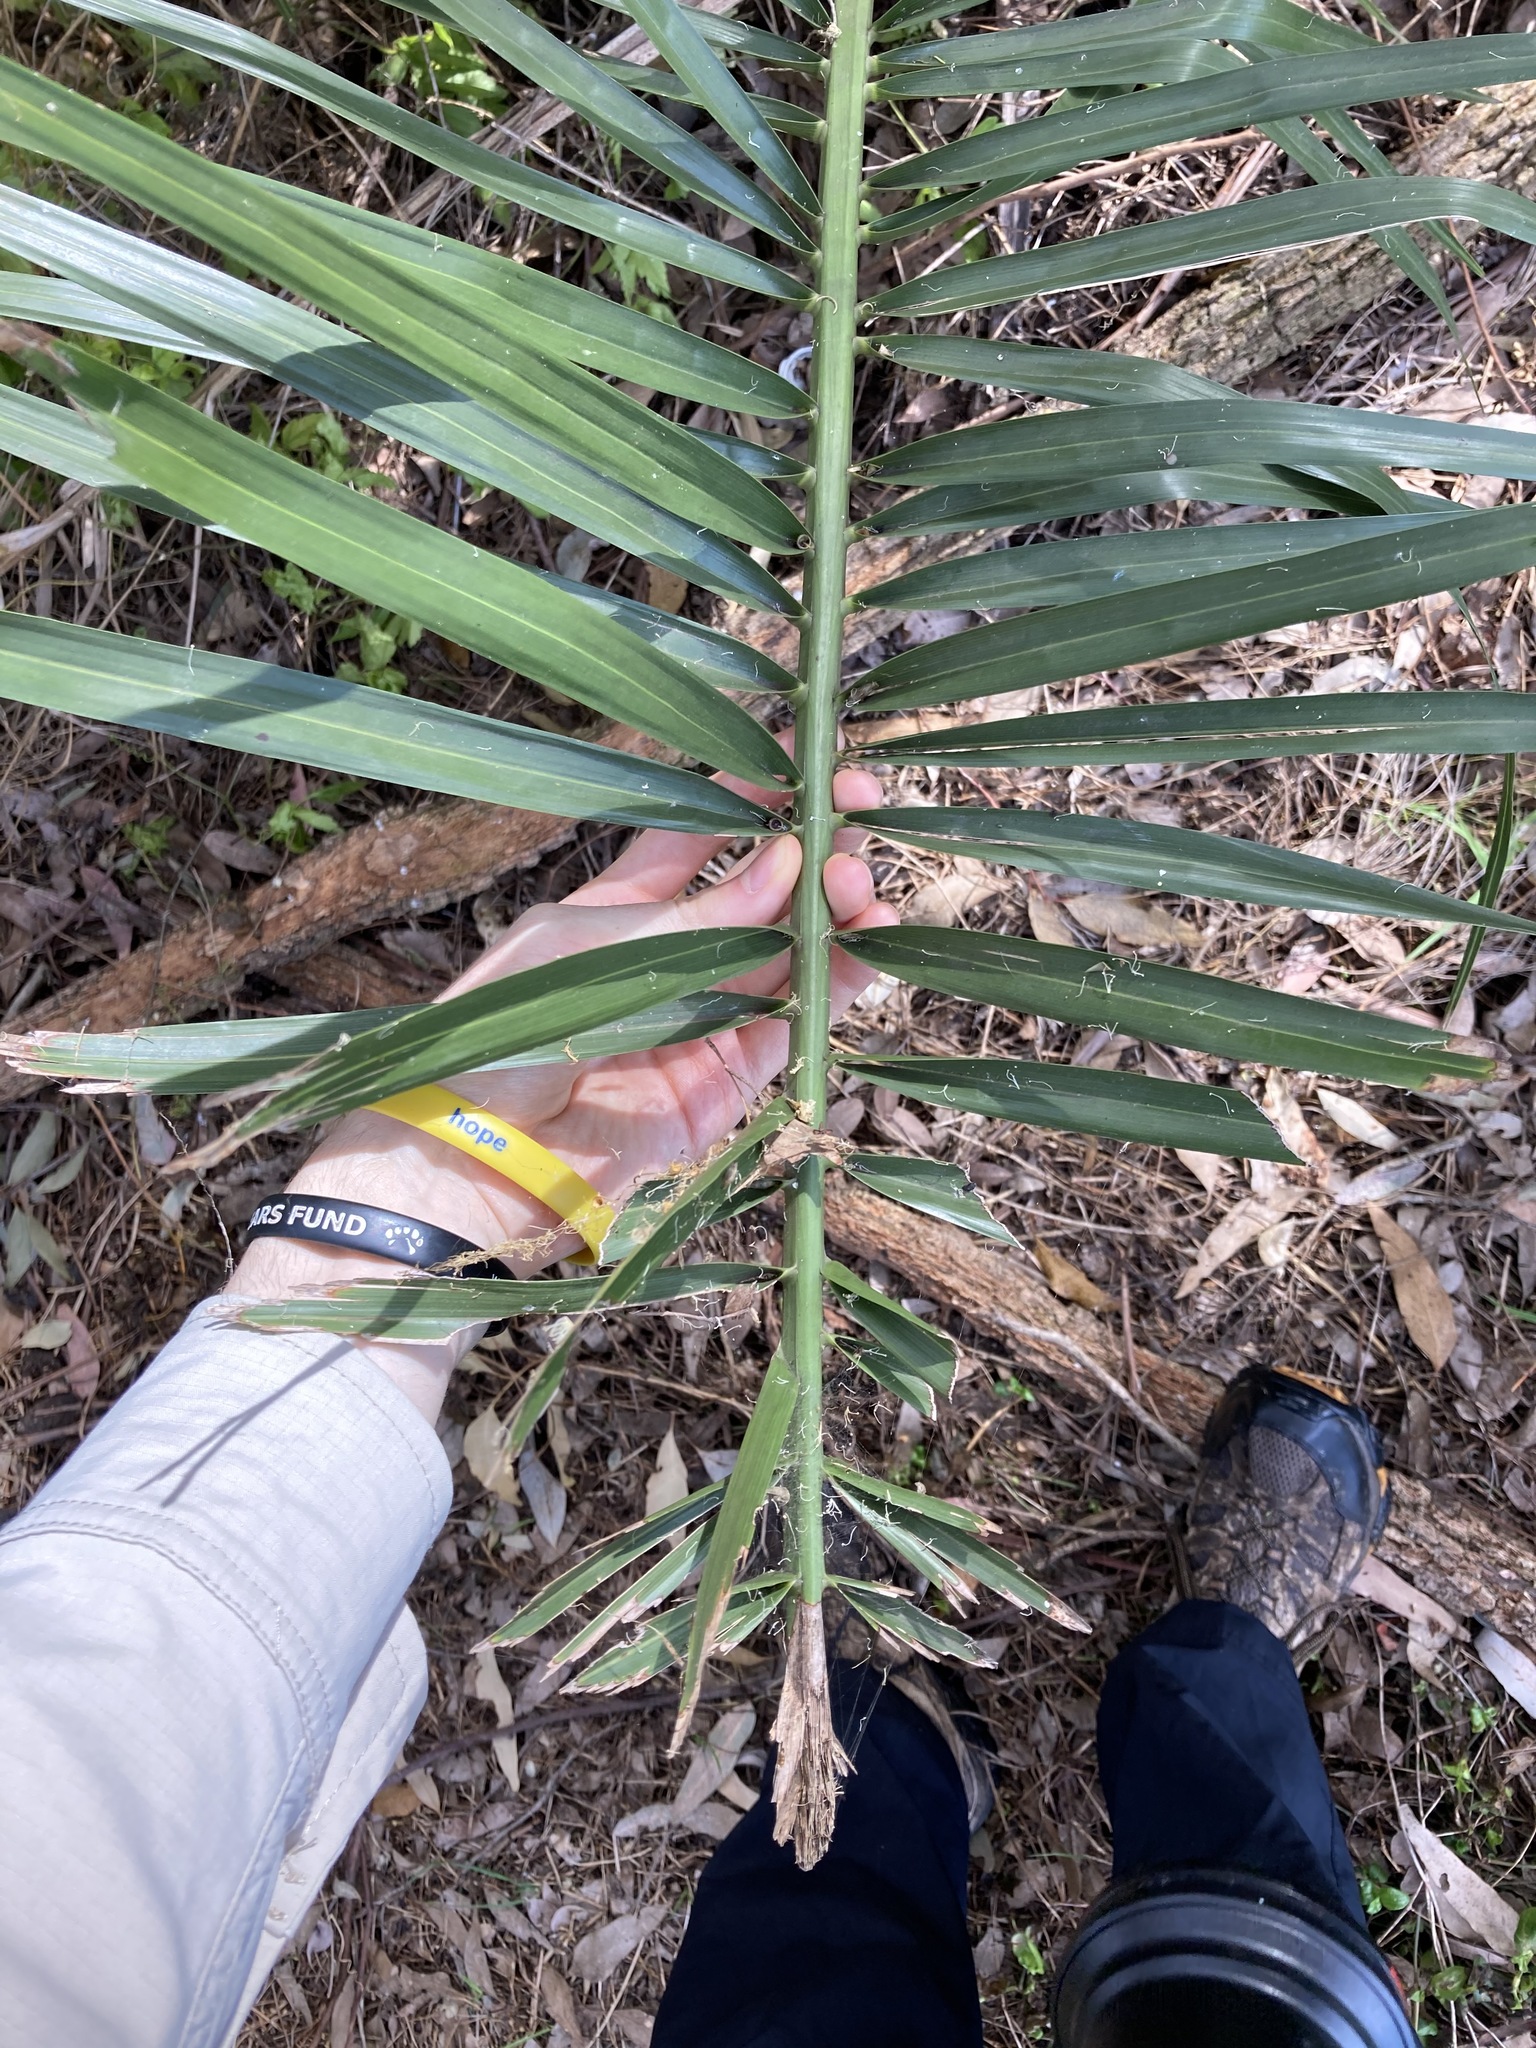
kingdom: Plantae
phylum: Tracheophyta
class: Liliopsida
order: Arecales
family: Arecaceae
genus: Phoenix
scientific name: Phoenix canariensis
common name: Canary island date palm
